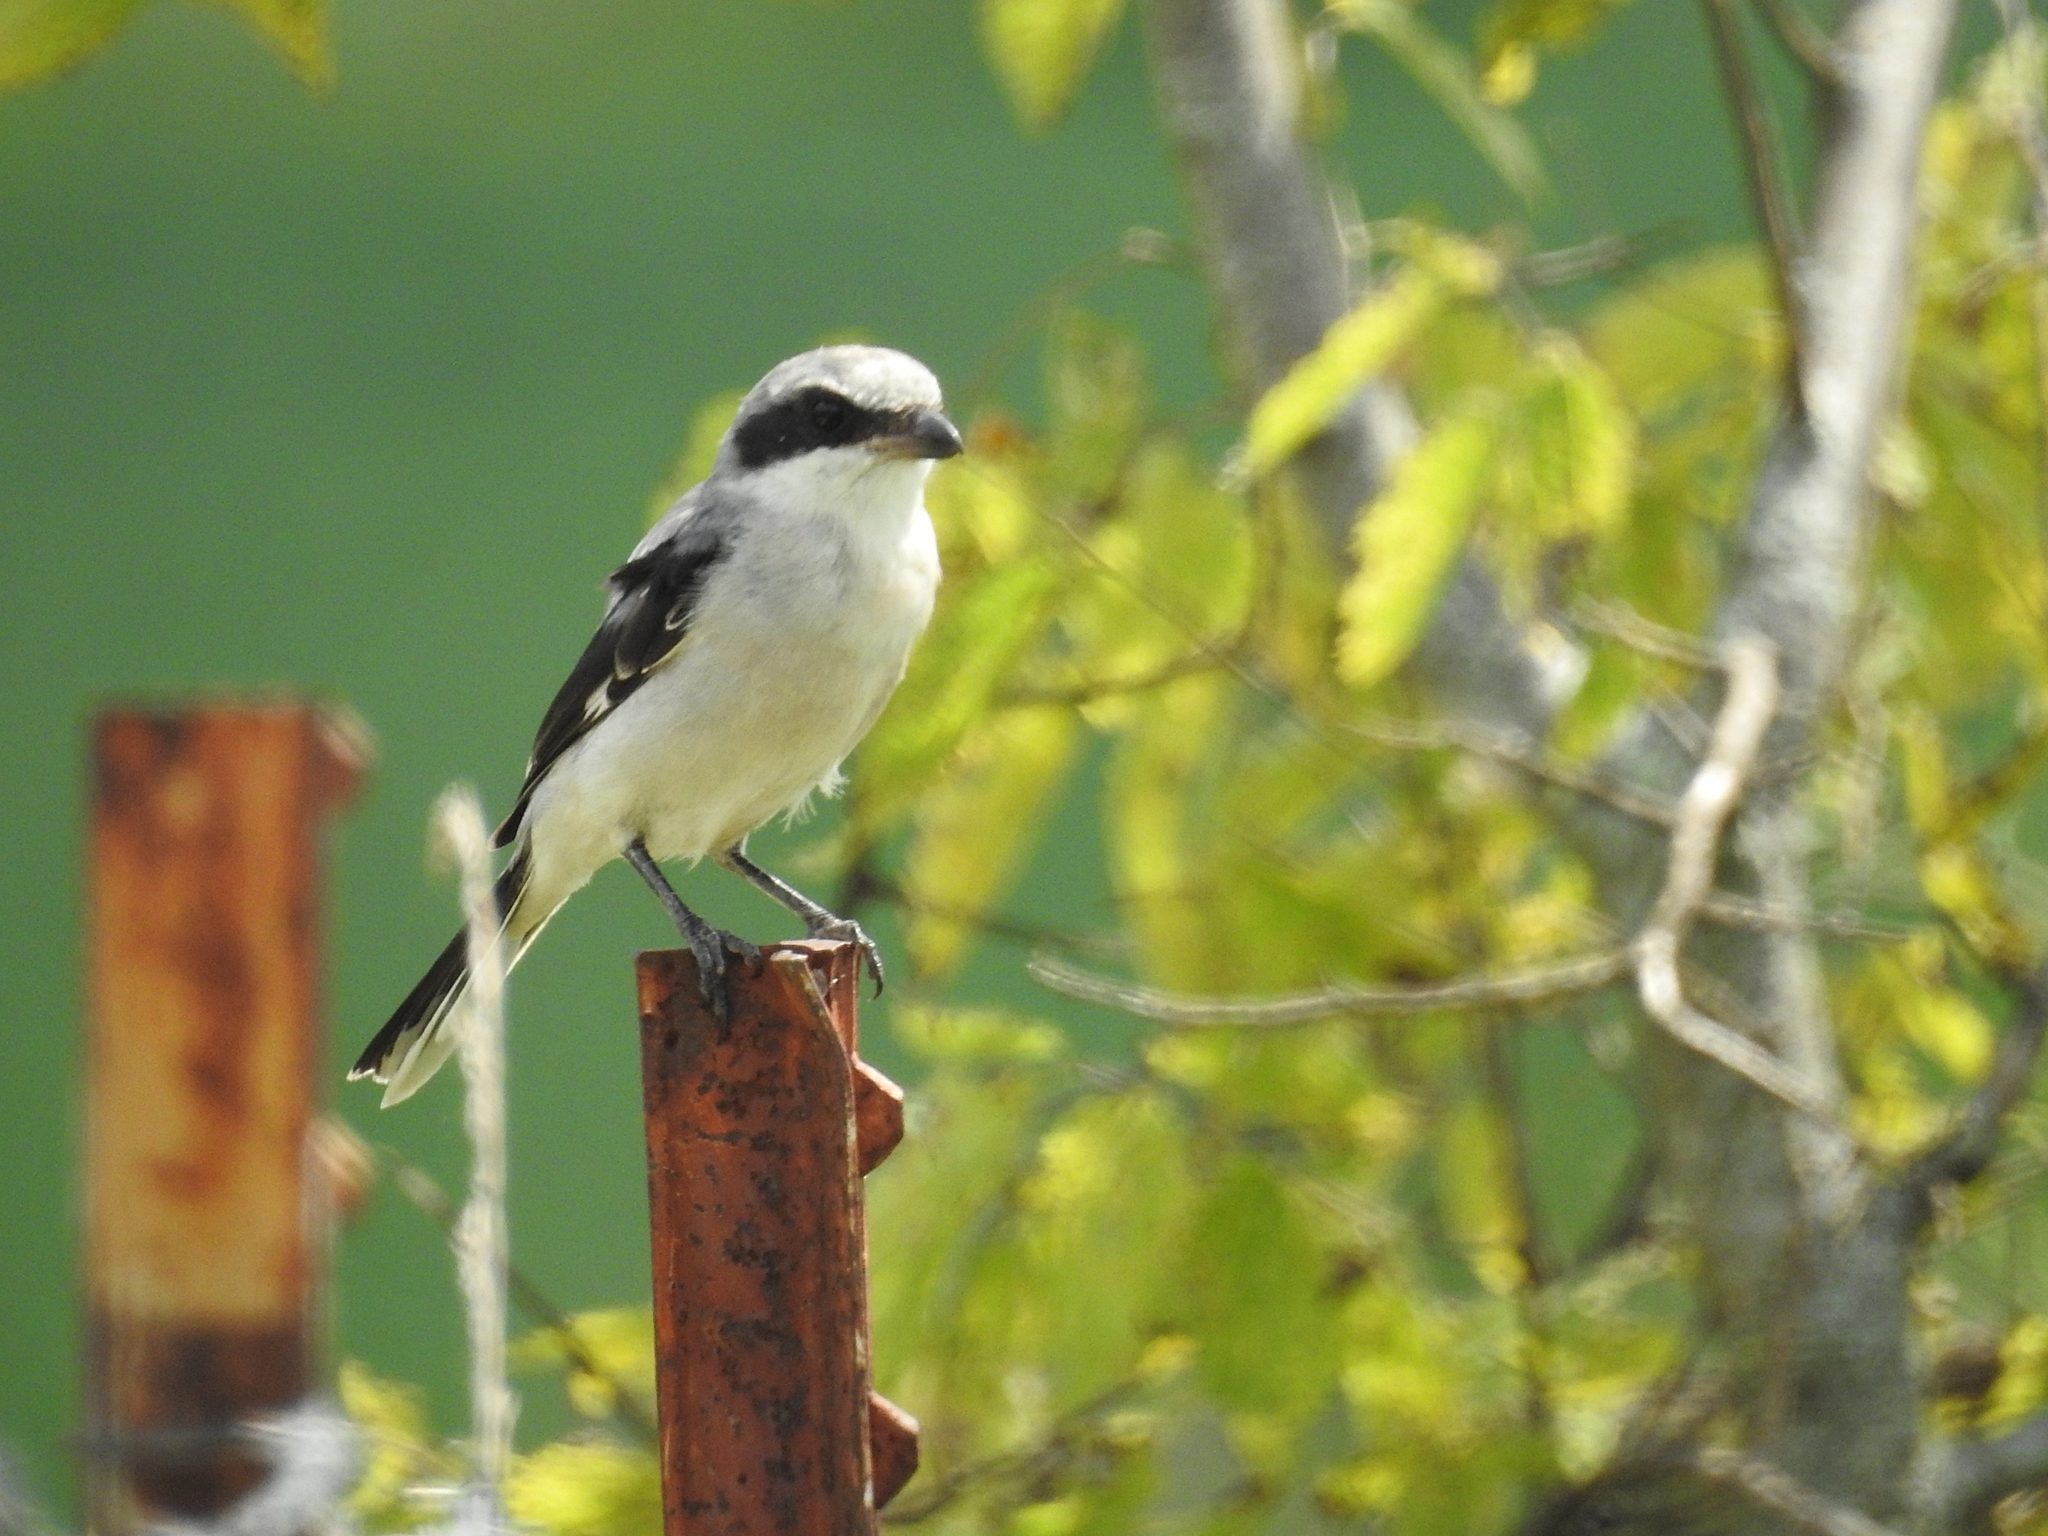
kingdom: Animalia
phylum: Chordata
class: Aves
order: Passeriformes
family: Laniidae
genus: Lanius
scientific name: Lanius ludovicianus
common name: Loggerhead shrike
